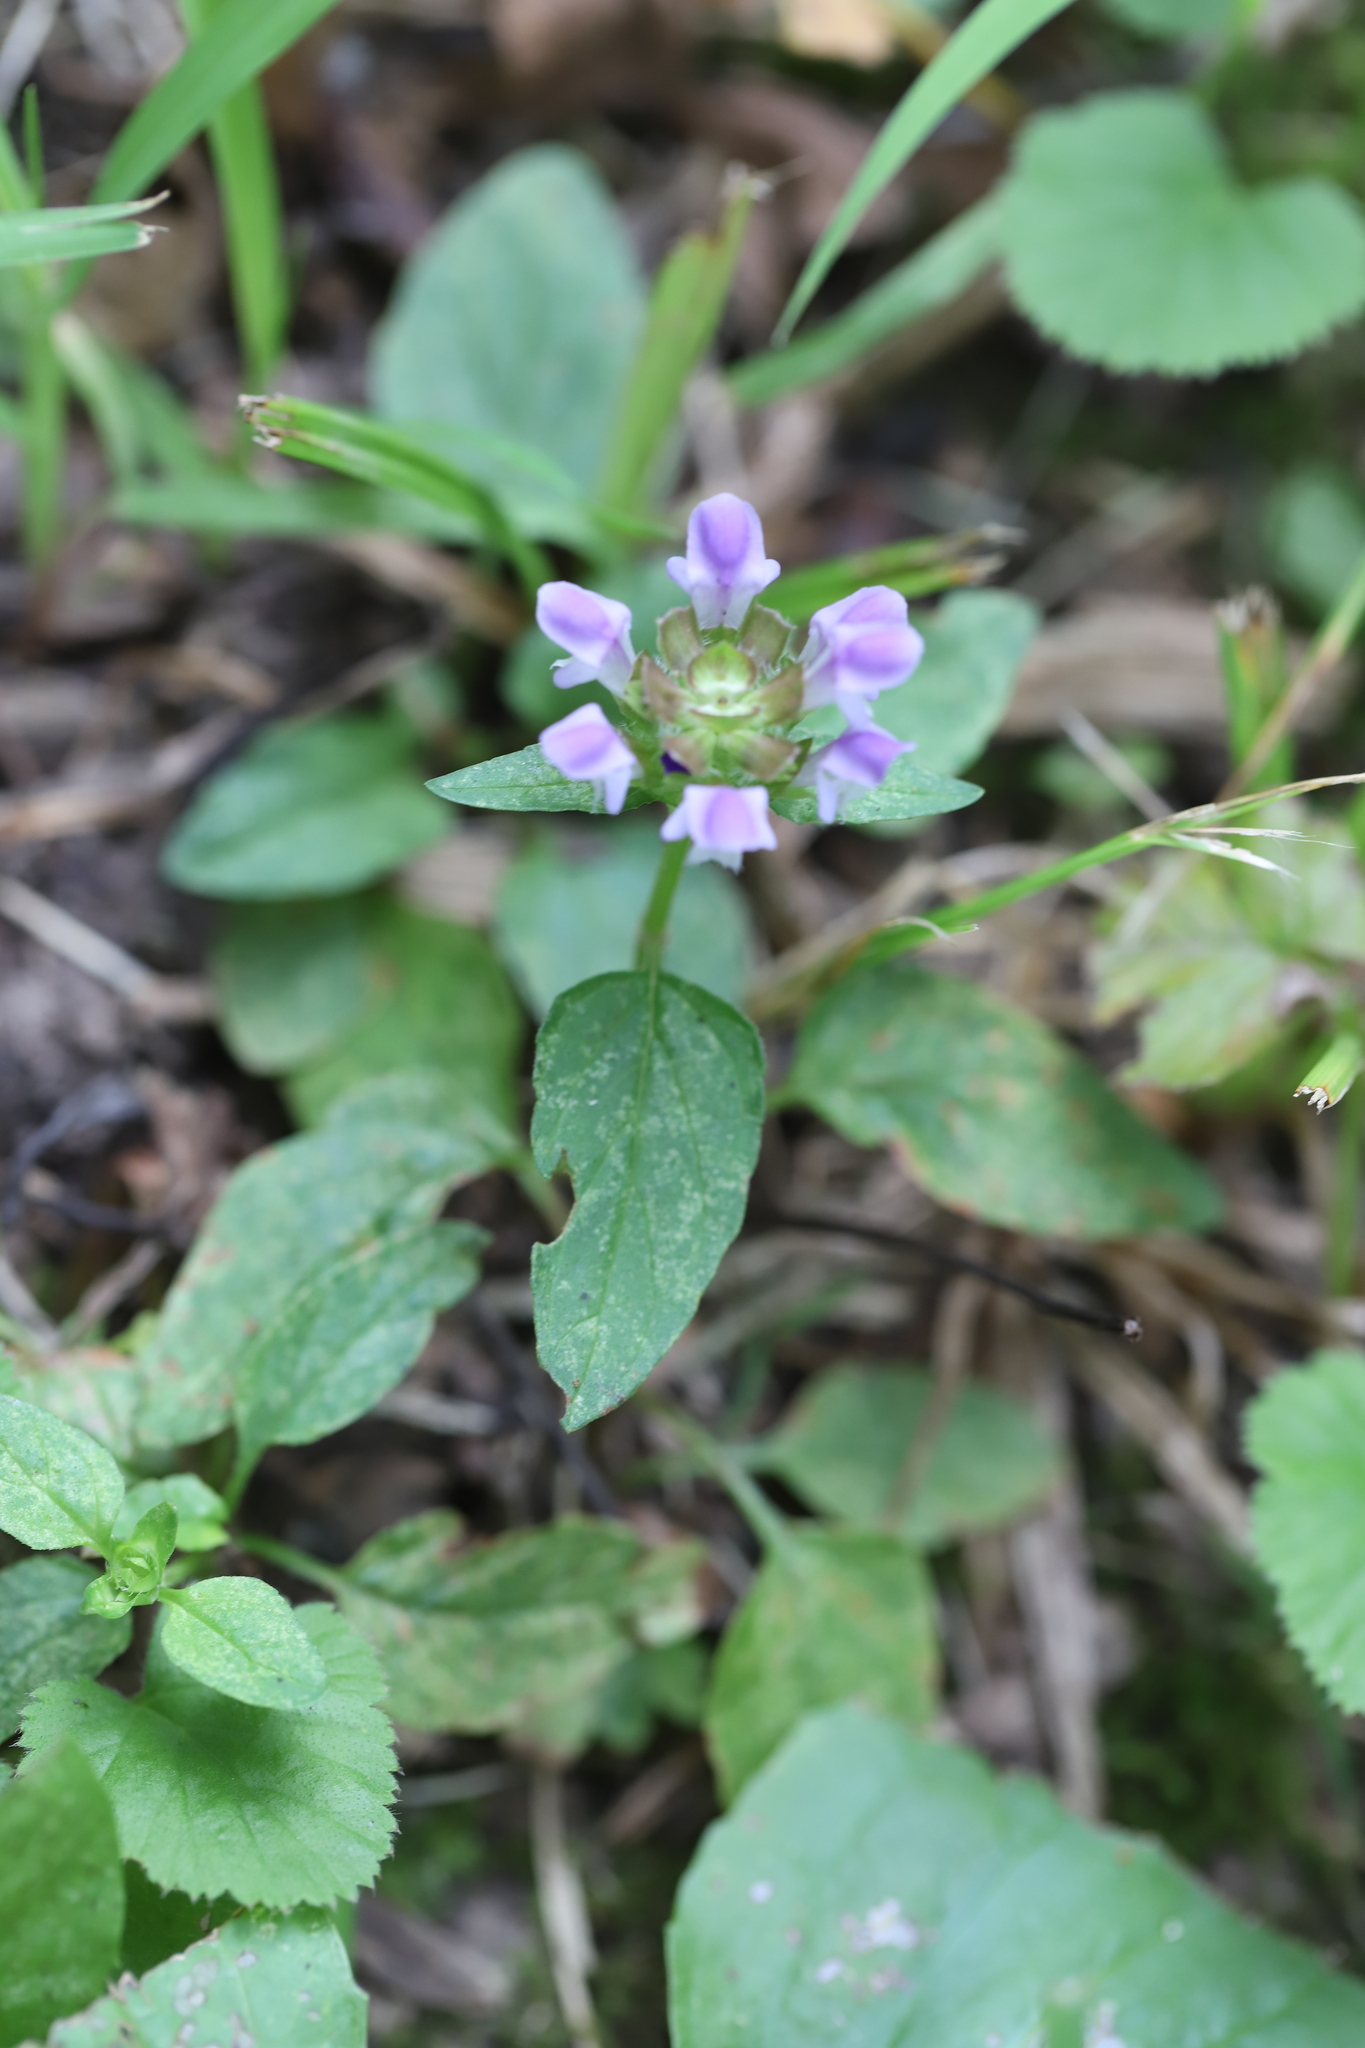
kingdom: Plantae
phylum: Tracheophyta
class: Magnoliopsida
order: Lamiales
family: Lamiaceae
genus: Prunella
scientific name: Prunella vulgaris
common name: Heal-all
